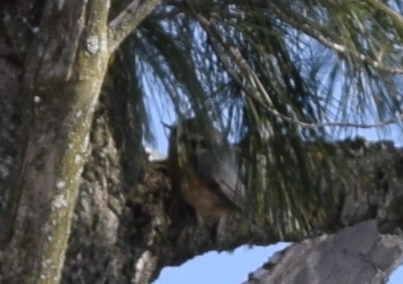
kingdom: Animalia
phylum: Chordata
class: Aves
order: Passeriformes
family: Sittidae
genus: Sitta
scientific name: Sitta canadensis
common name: Red-breasted nuthatch
